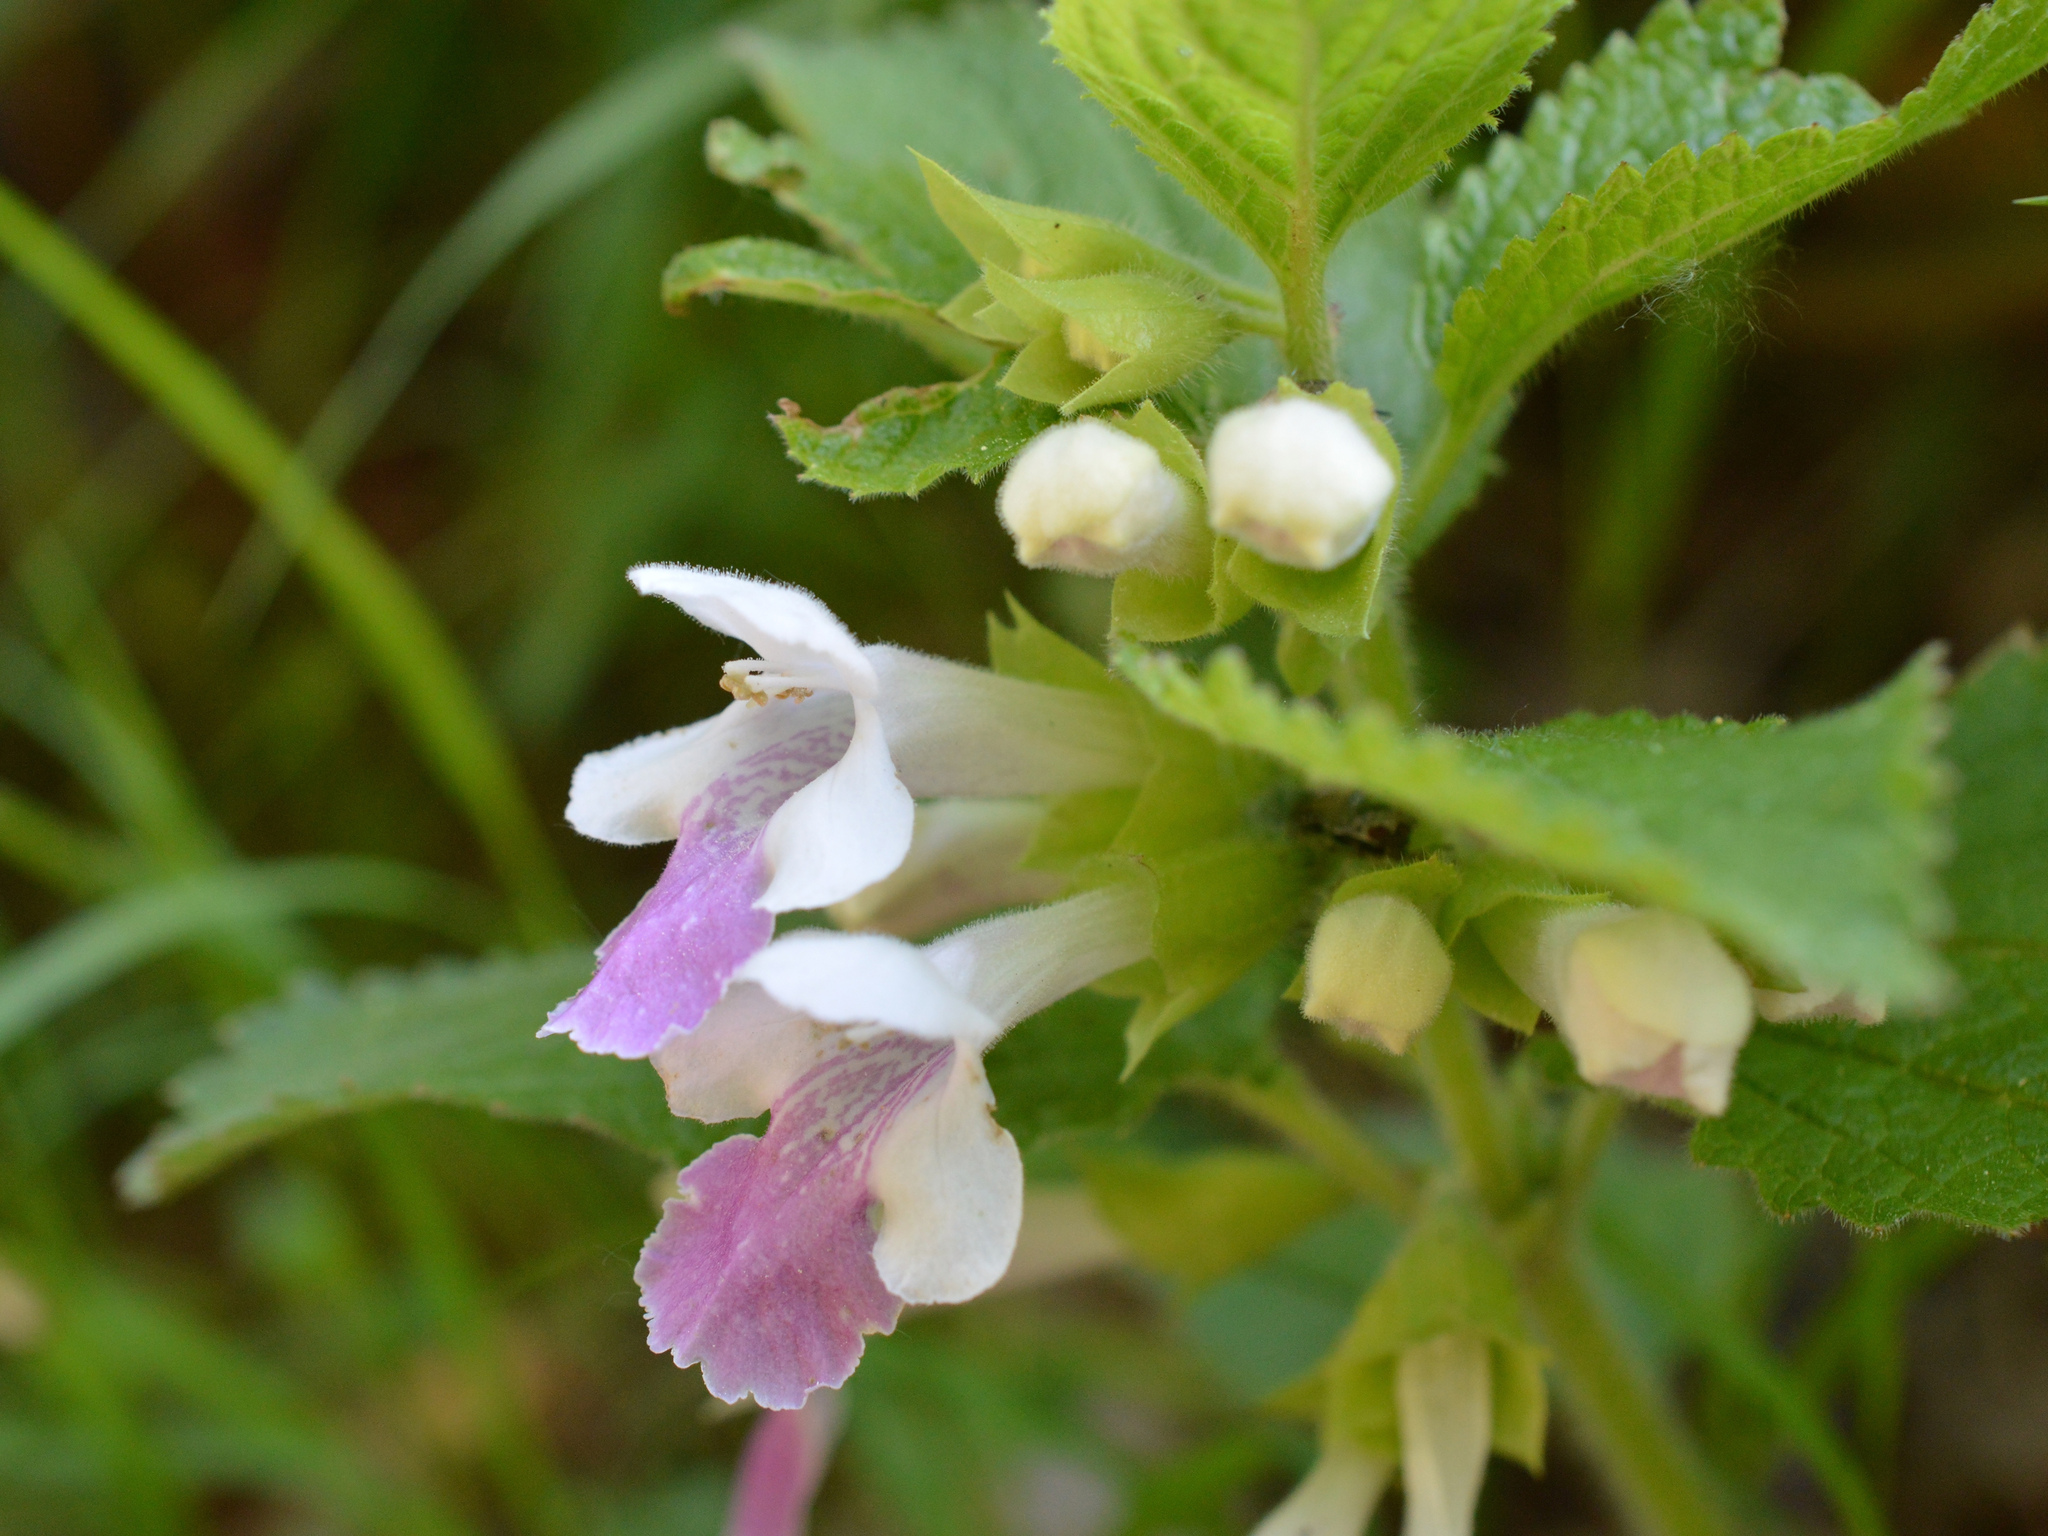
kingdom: Plantae
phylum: Tracheophyta
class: Magnoliopsida
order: Lamiales
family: Lamiaceae
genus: Melittis
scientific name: Melittis melissophyllum
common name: Bastard balm
